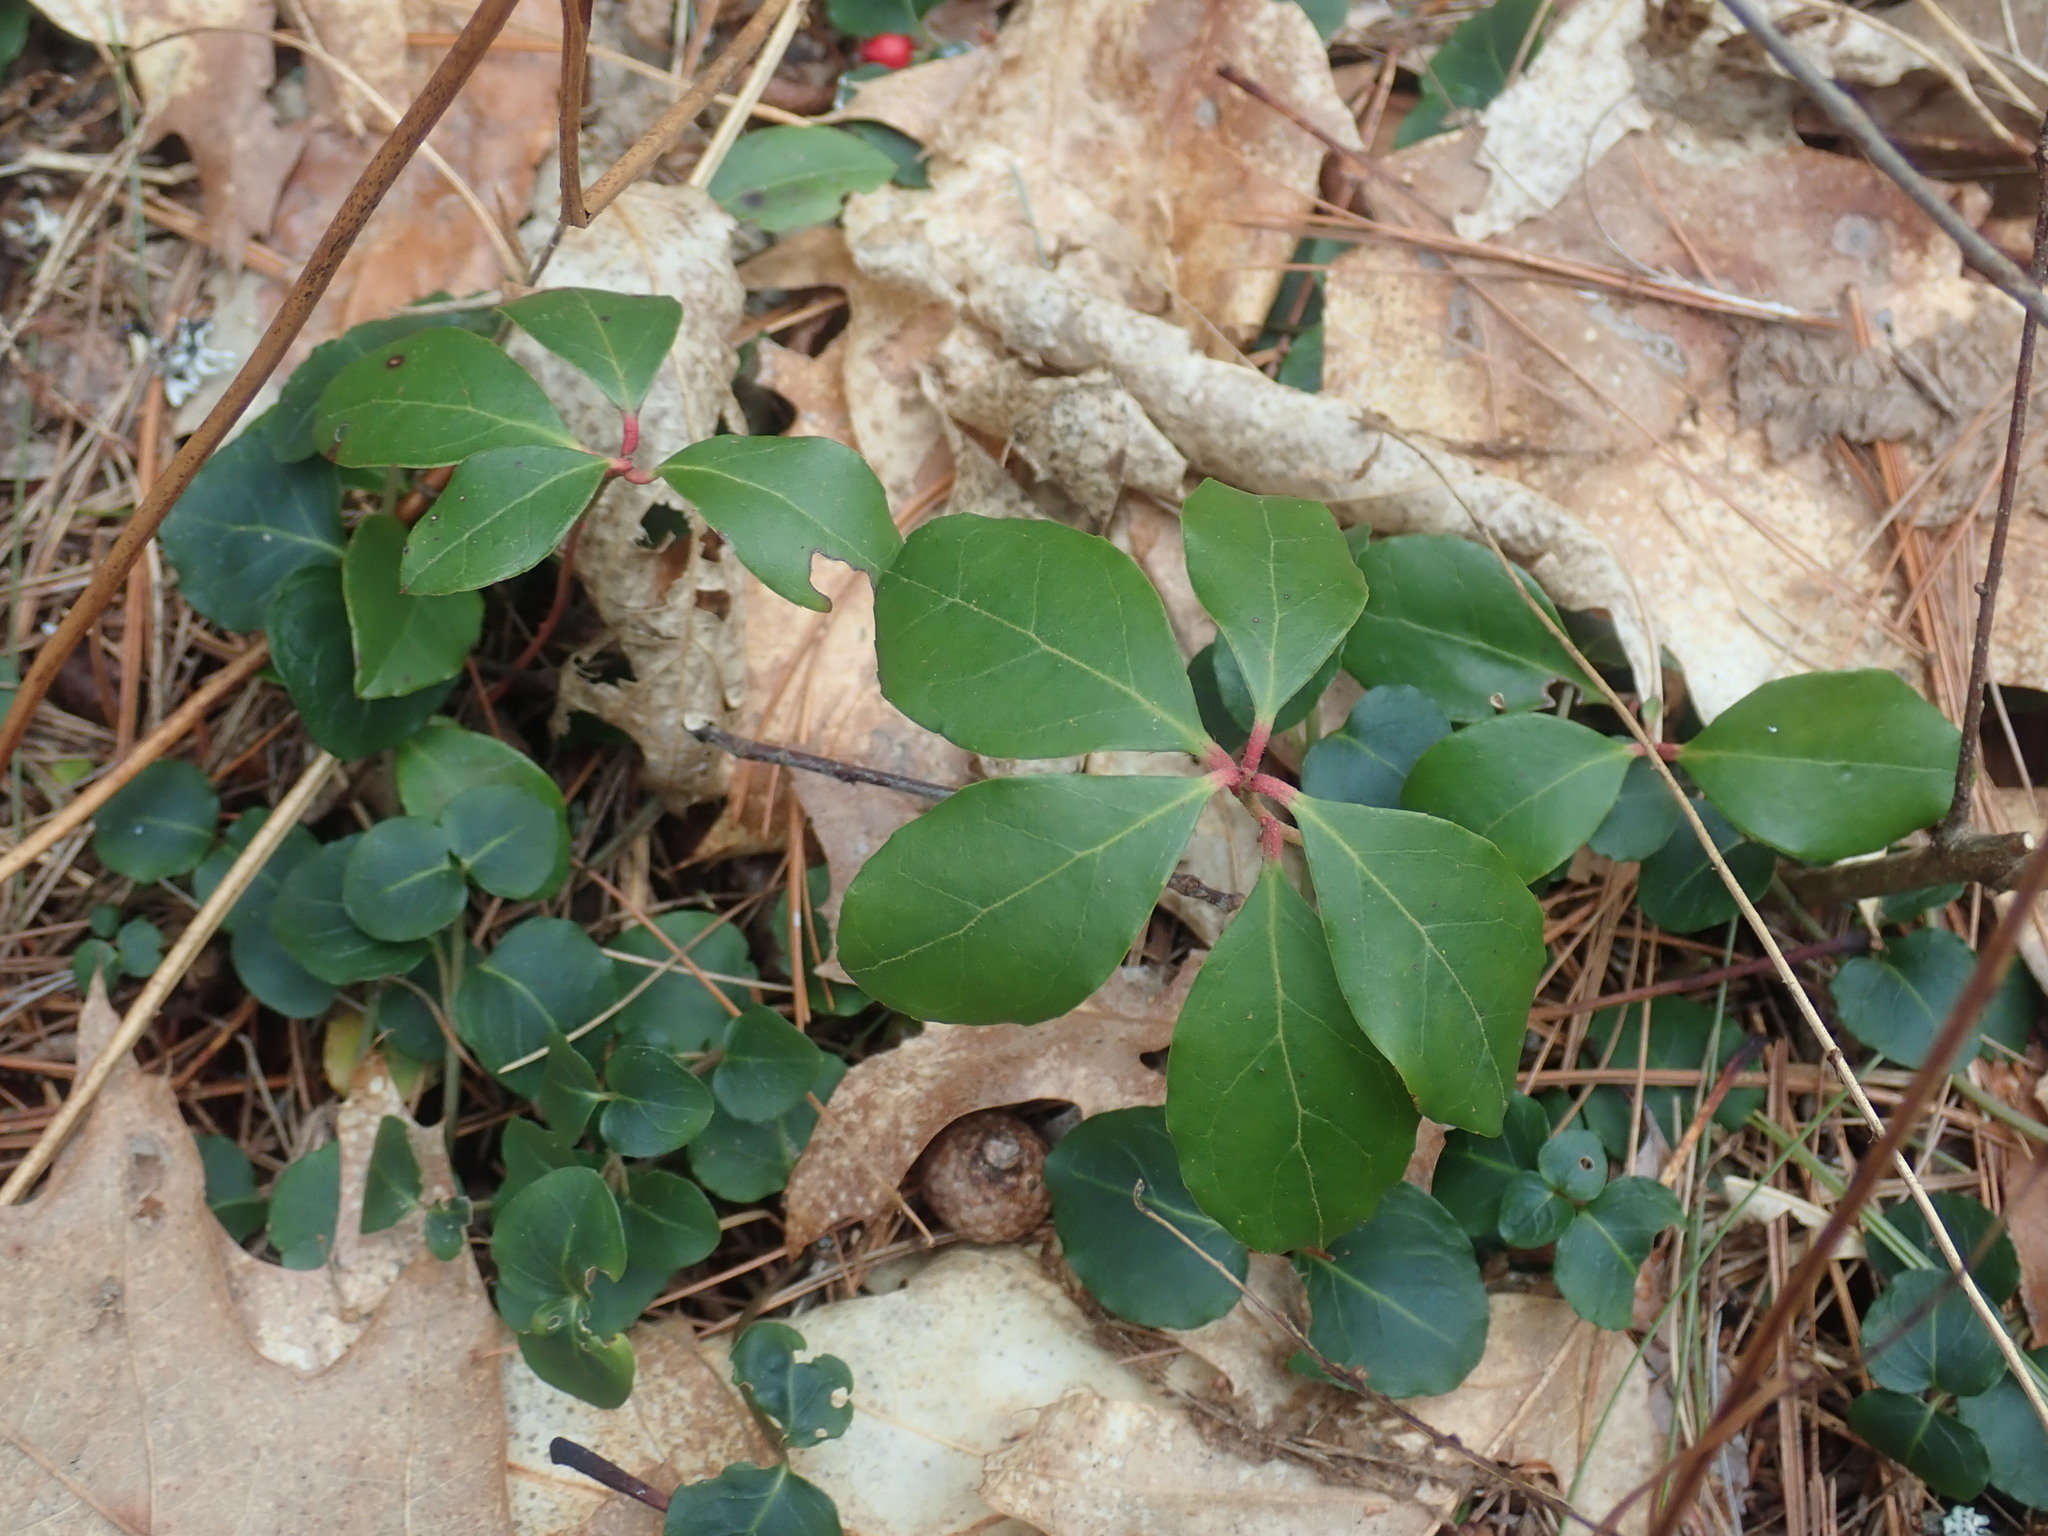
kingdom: Plantae
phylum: Tracheophyta
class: Magnoliopsida
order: Ericales
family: Ericaceae
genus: Gaultheria
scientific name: Gaultheria procumbens
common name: Checkerberry
